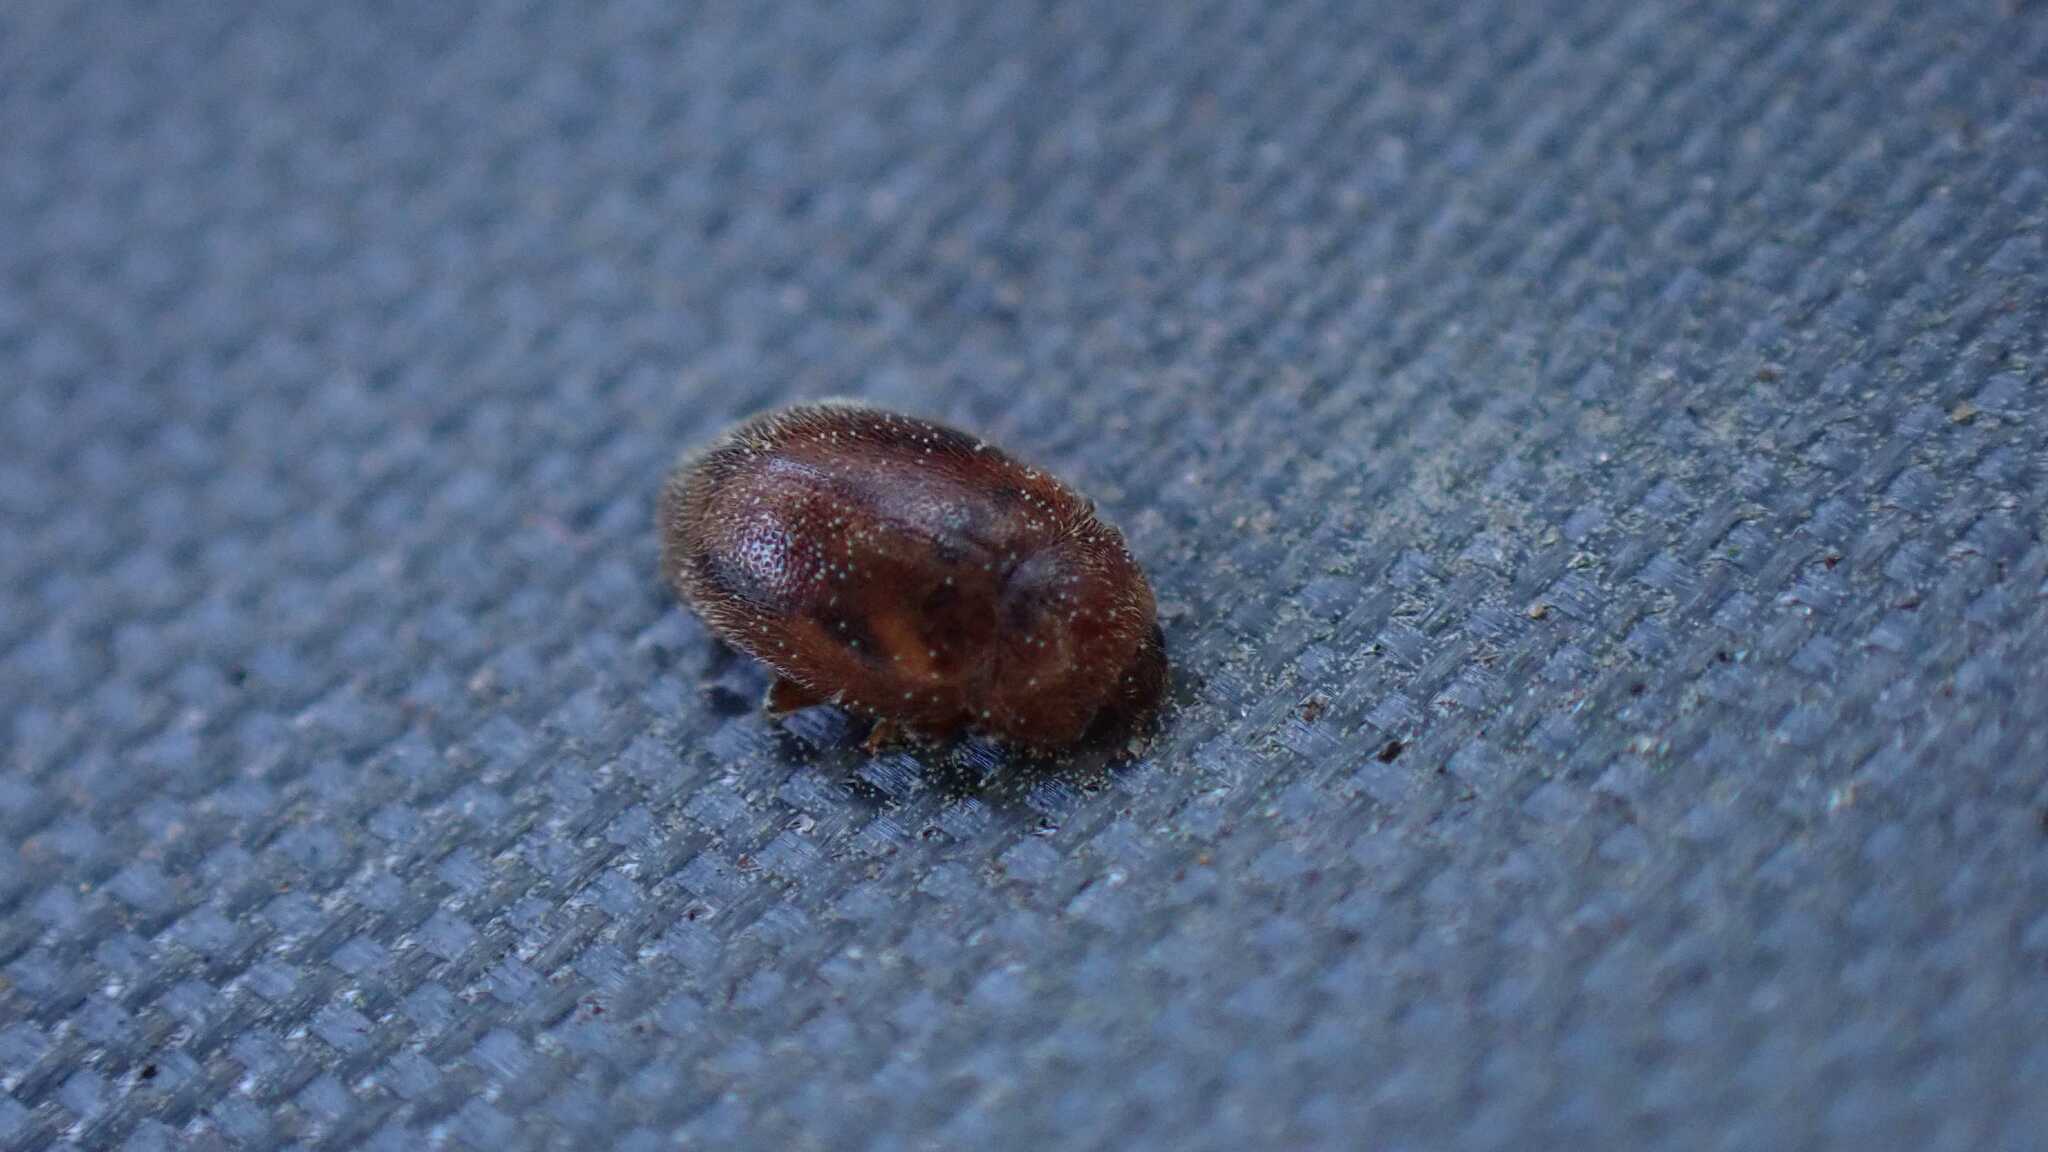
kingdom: Animalia
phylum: Arthropoda
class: Insecta
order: Coleoptera
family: Coccinellidae
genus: Rhyzobius
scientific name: Rhyzobius chrysomeloides
